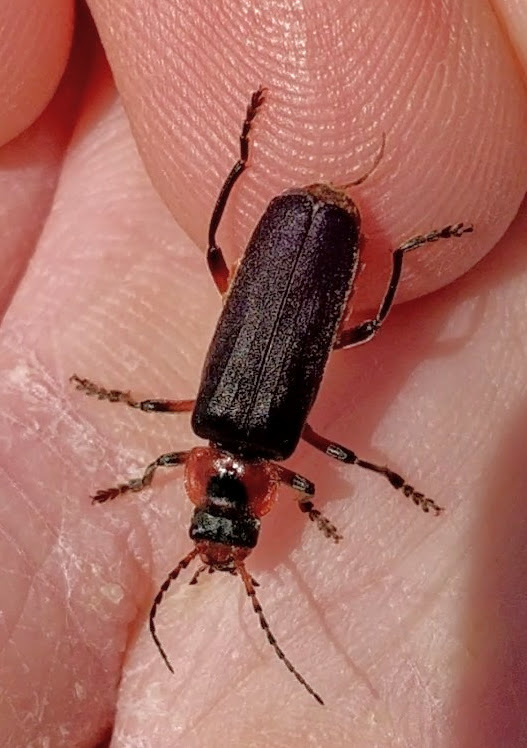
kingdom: Animalia
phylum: Arthropoda
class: Insecta
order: Coleoptera
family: Cantharidae
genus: Cantharis
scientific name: Cantharis rustica
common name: Soldier beetle
